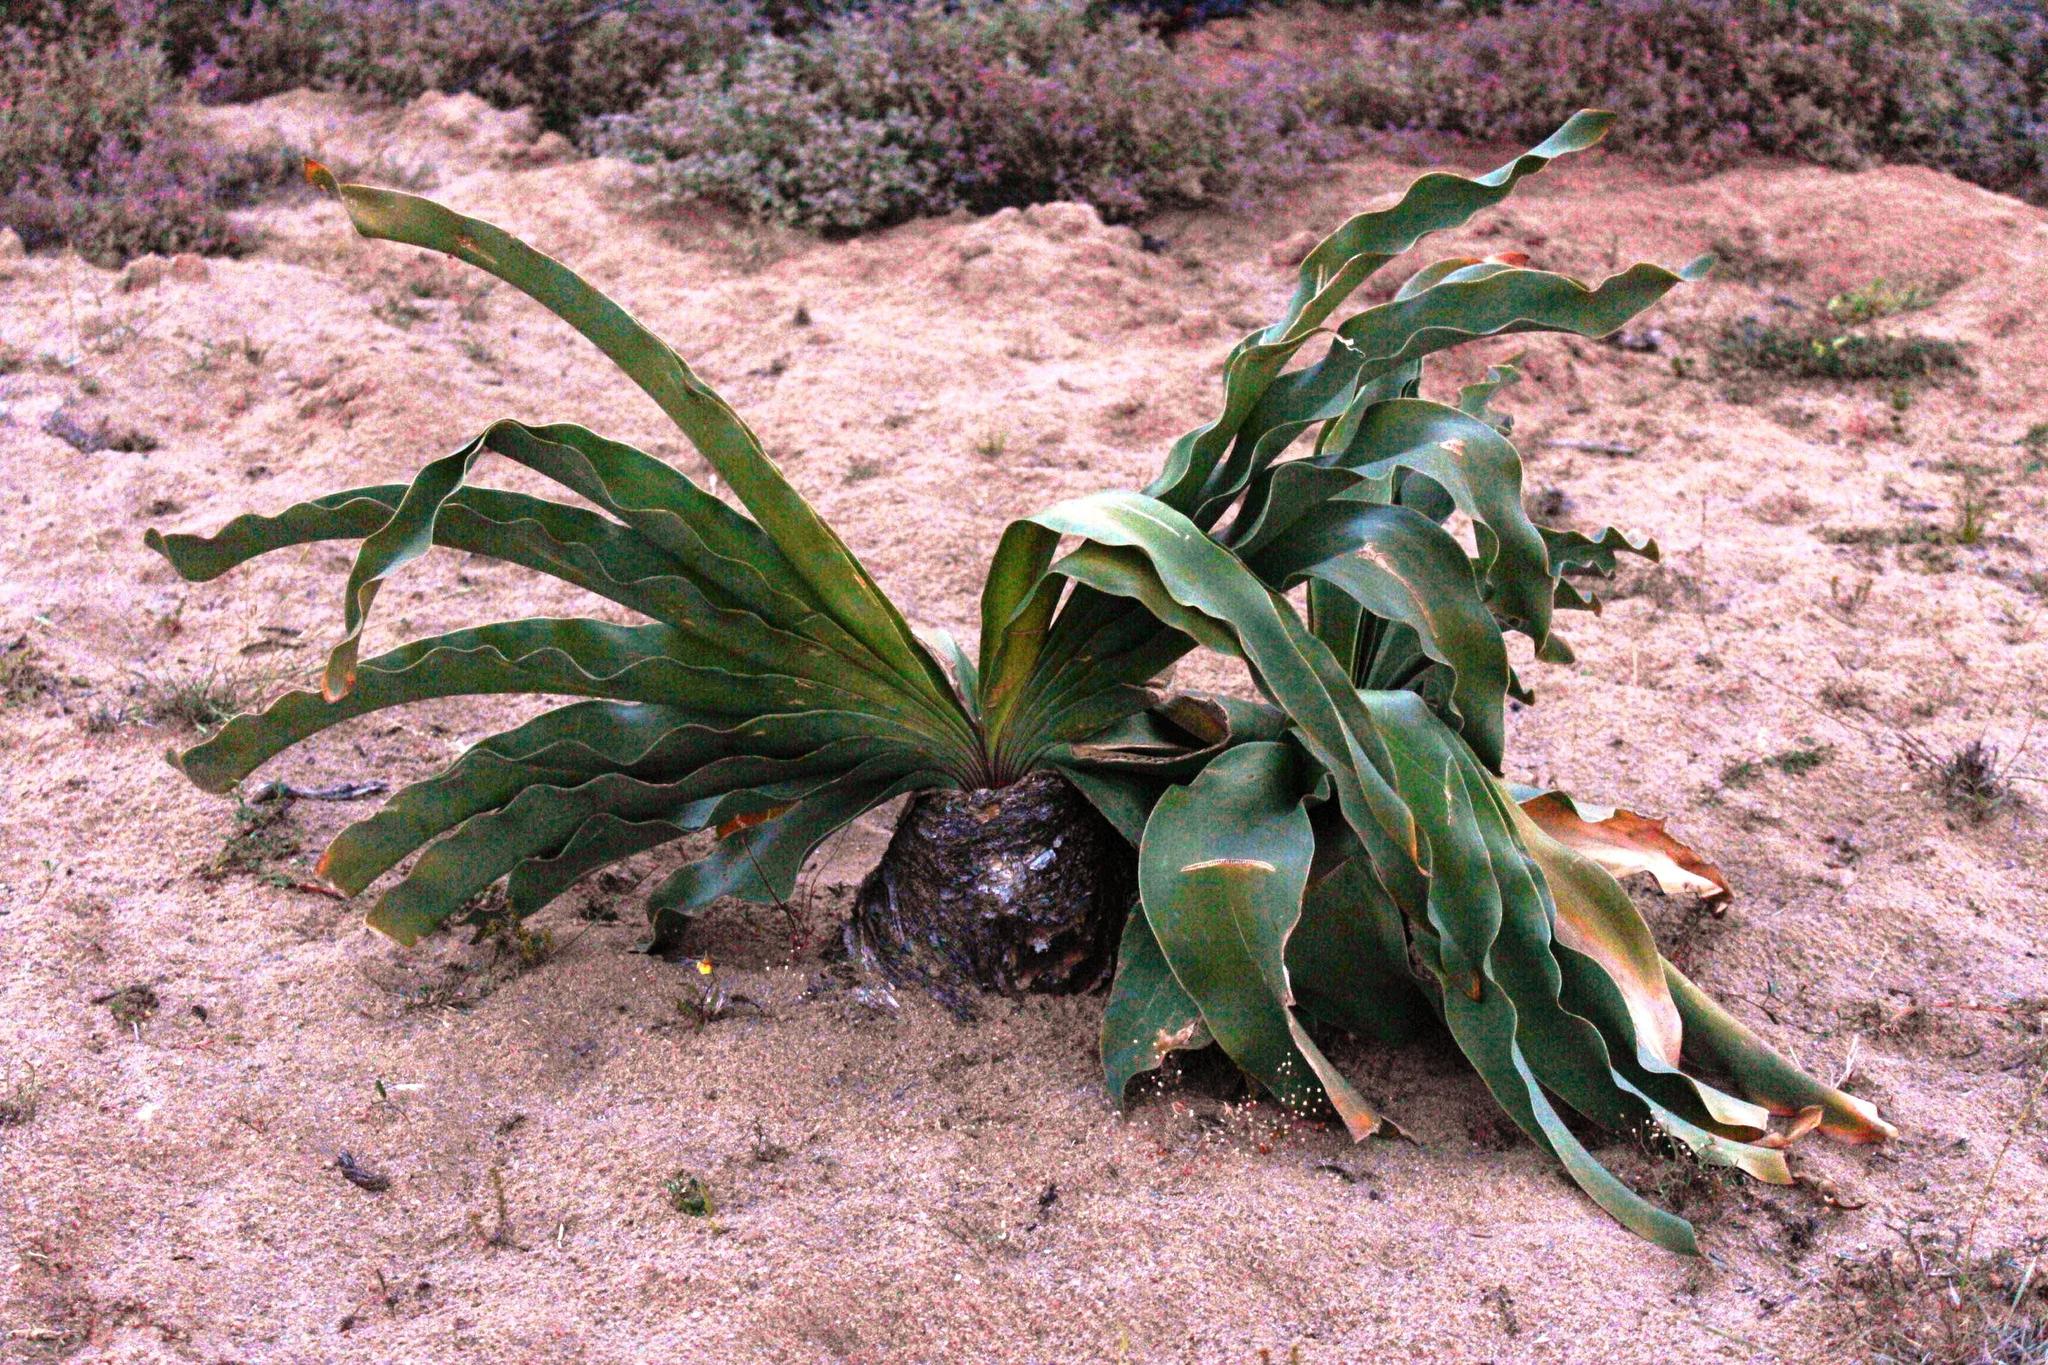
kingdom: Plantae
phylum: Tracheophyta
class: Liliopsida
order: Asparagales
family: Amaryllidaceae
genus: Boophone
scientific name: Boophone haemanthoides
